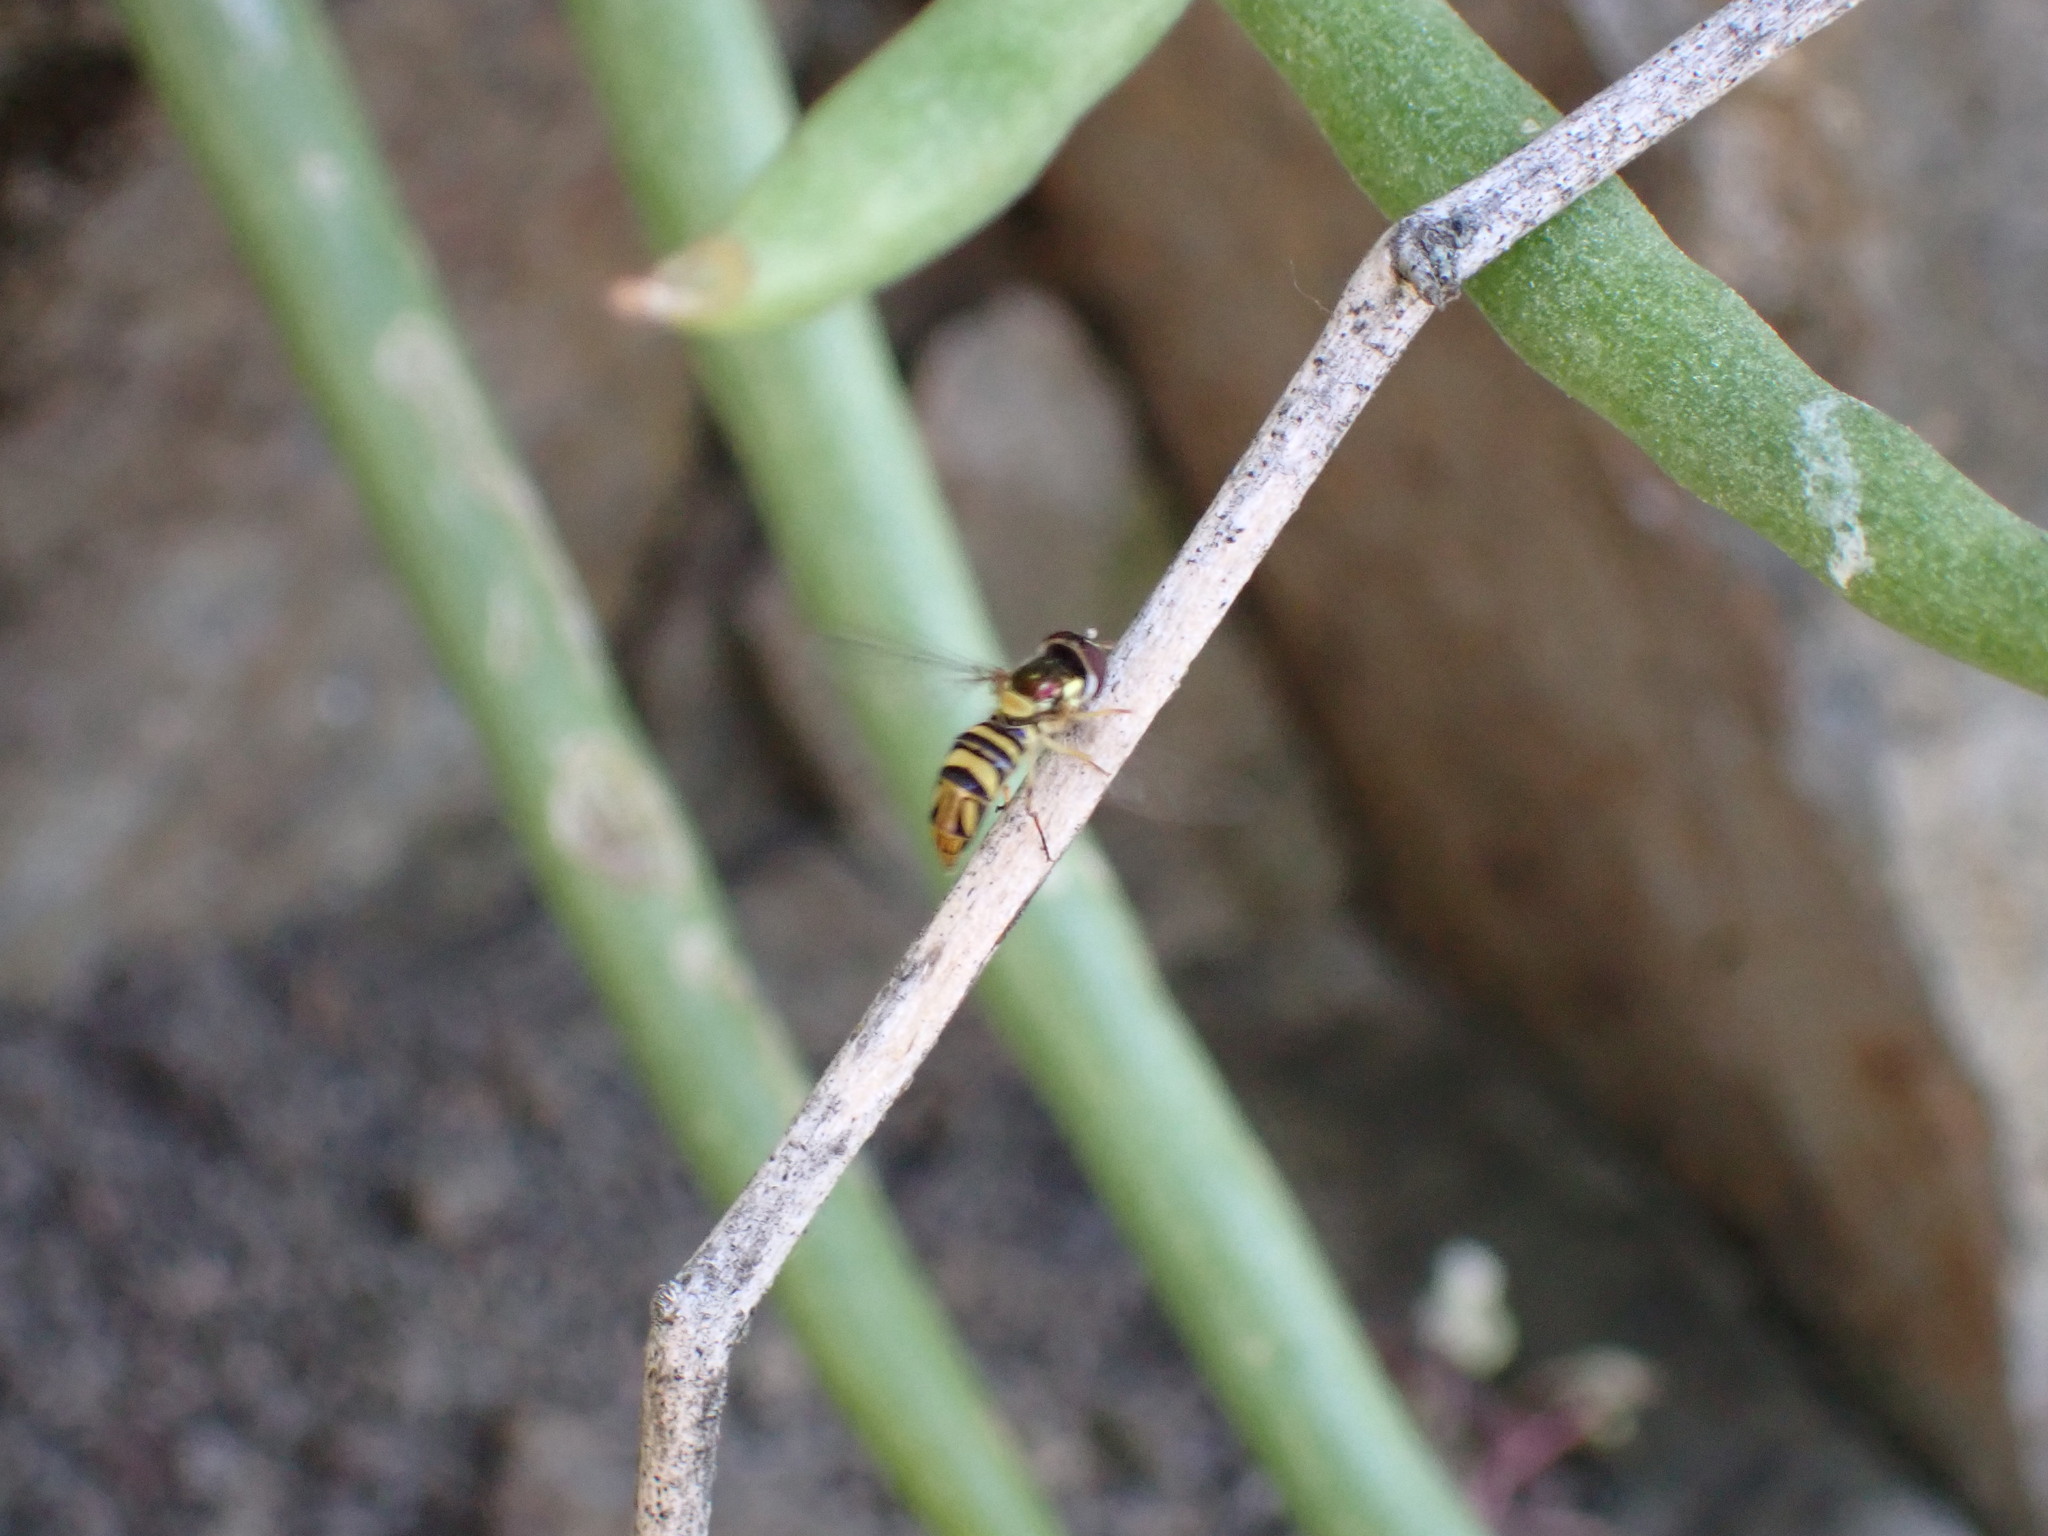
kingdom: Animalia
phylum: Arthropoda
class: Insecta
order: Diptera
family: Syrphidae
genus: Allograpta
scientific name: Allograpta obliqua
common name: Common oblique syrphid
